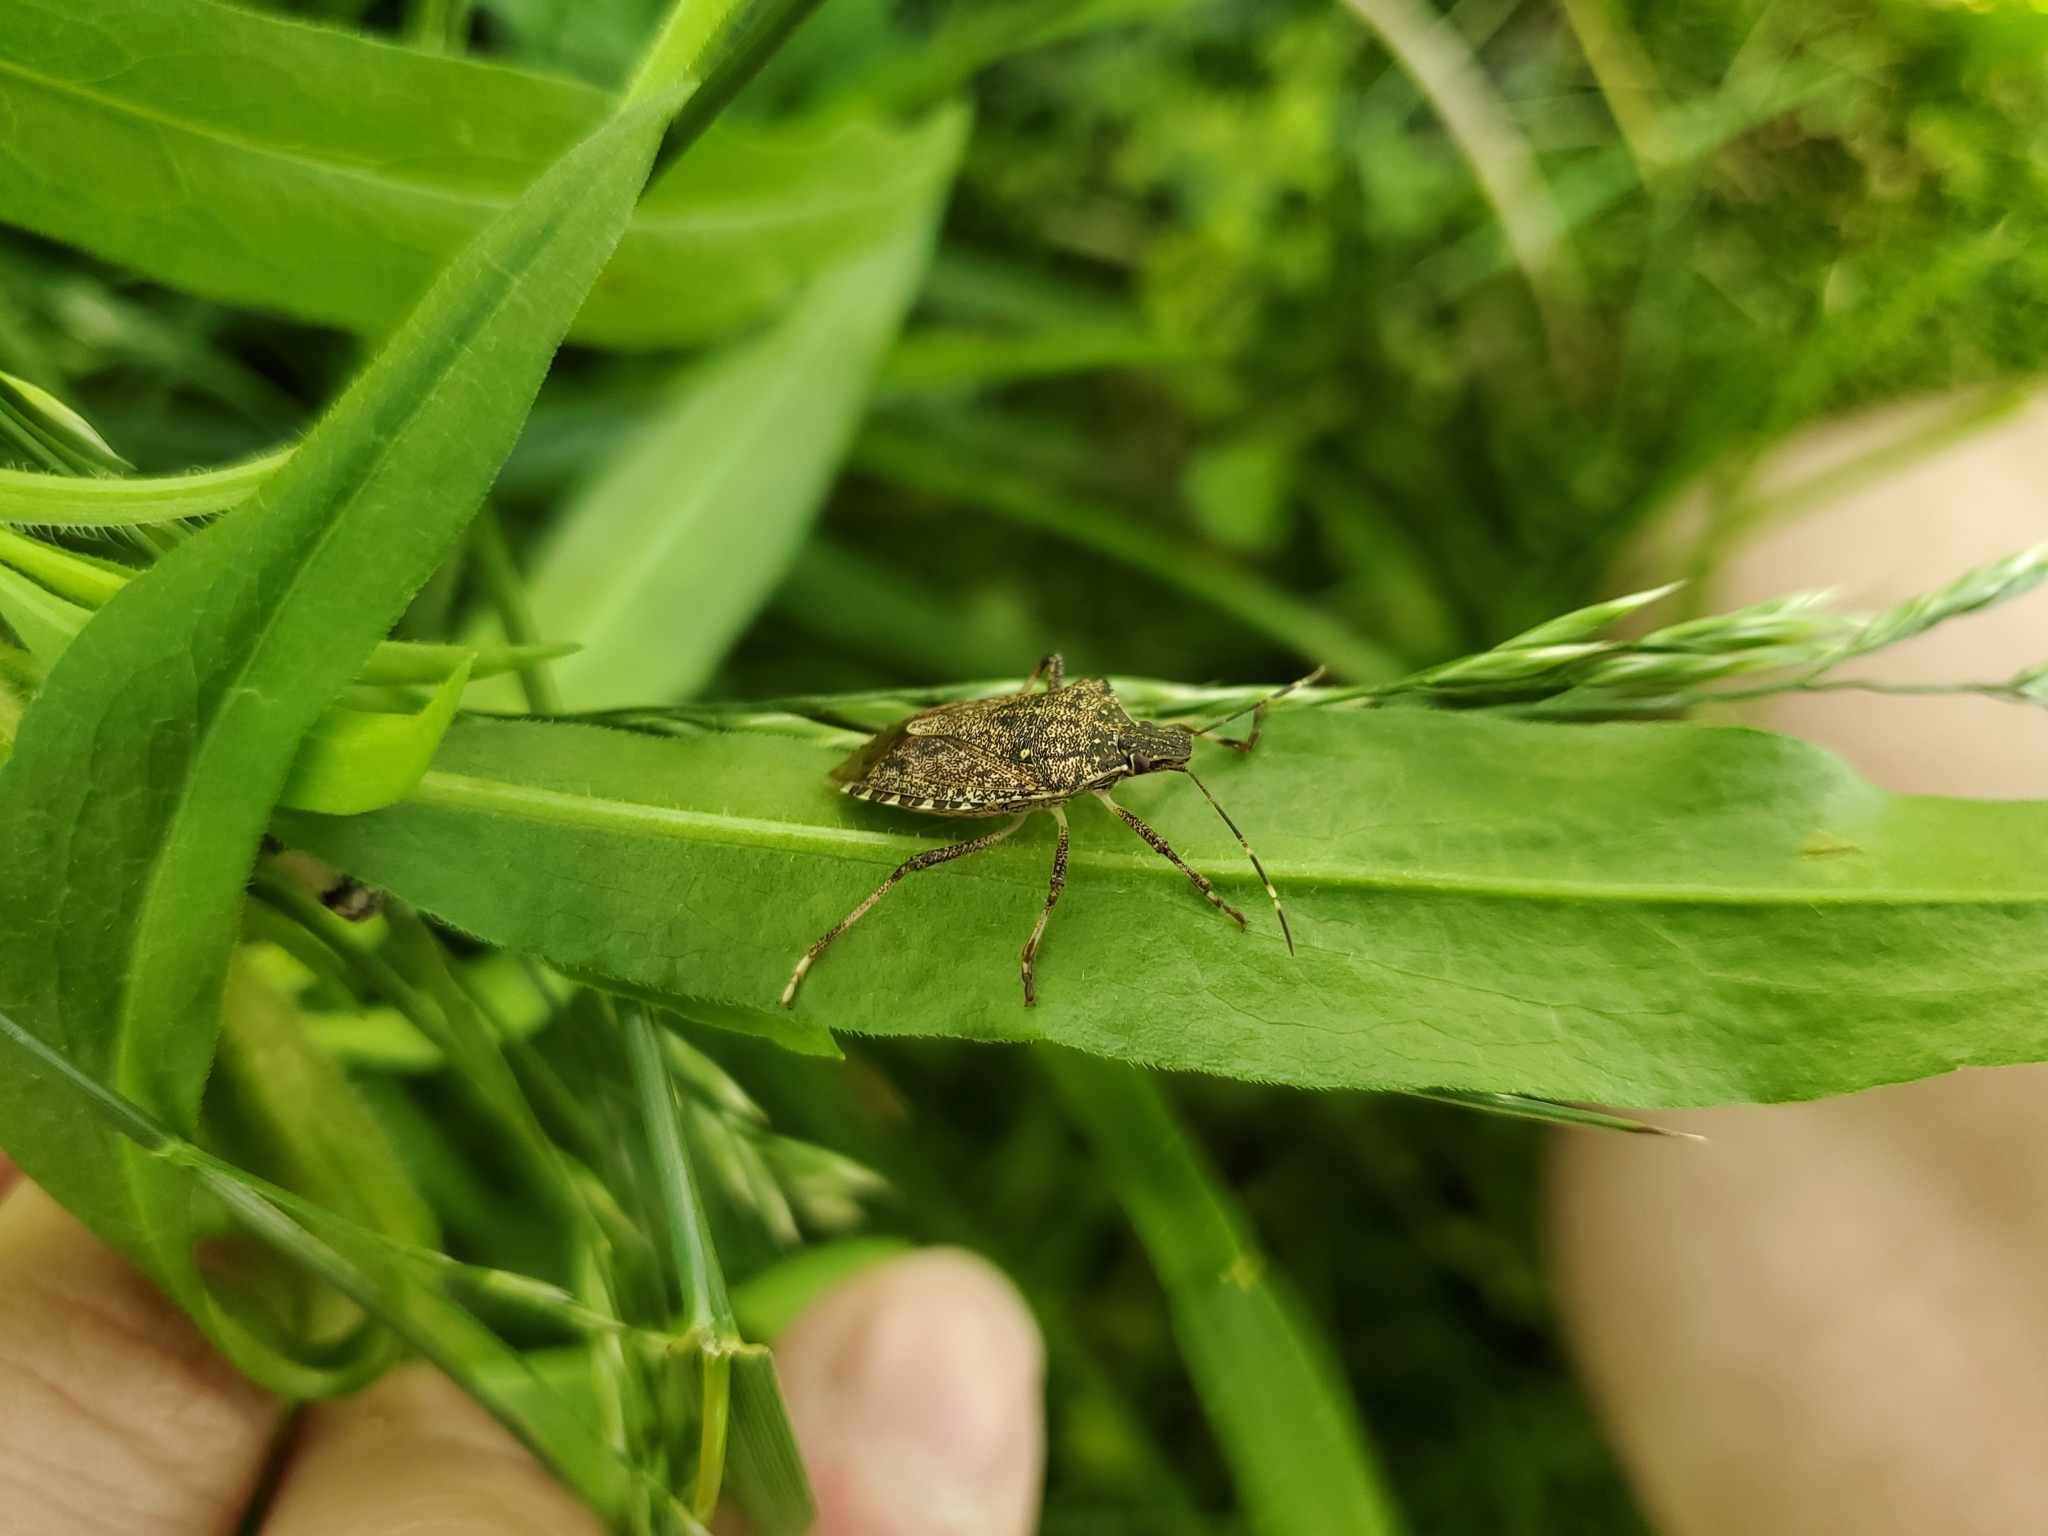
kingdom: Animalia
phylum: Arthropoda
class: Insecta
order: Hemiptera
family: Pentatomidae
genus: Halyomorpha
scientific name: Halyomorpha halys
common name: Brown marmorated stink bug
